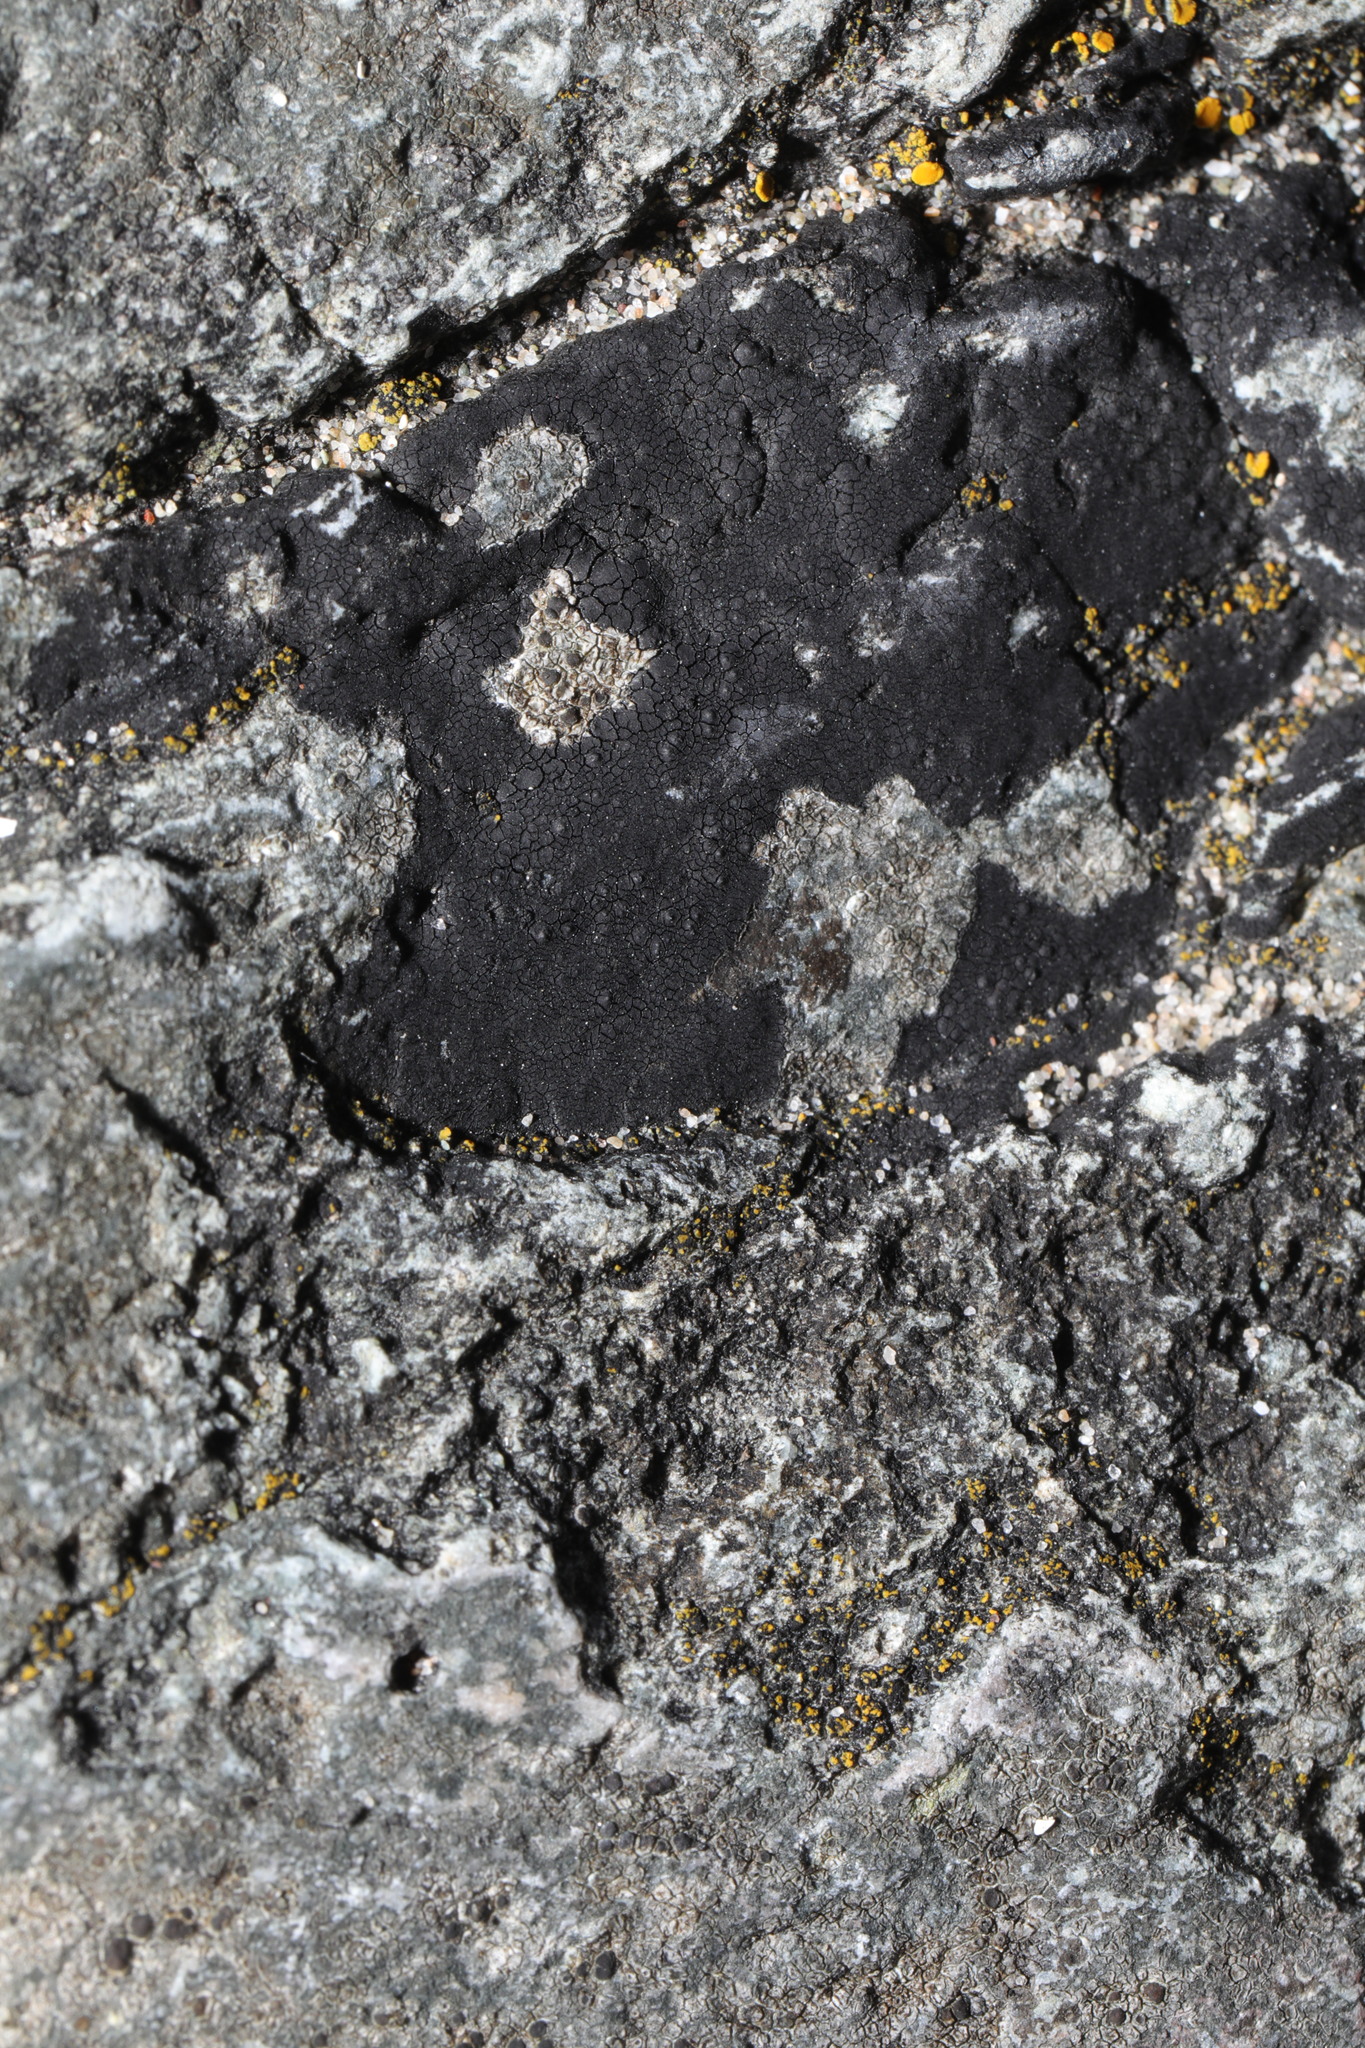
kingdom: Fungi
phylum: Ascomycota
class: Eurotiomycetes
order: Verrucariales
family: Verrucariaceae
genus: Hydropunctaria
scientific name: Hydropunctaria maura
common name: Tar lichen
